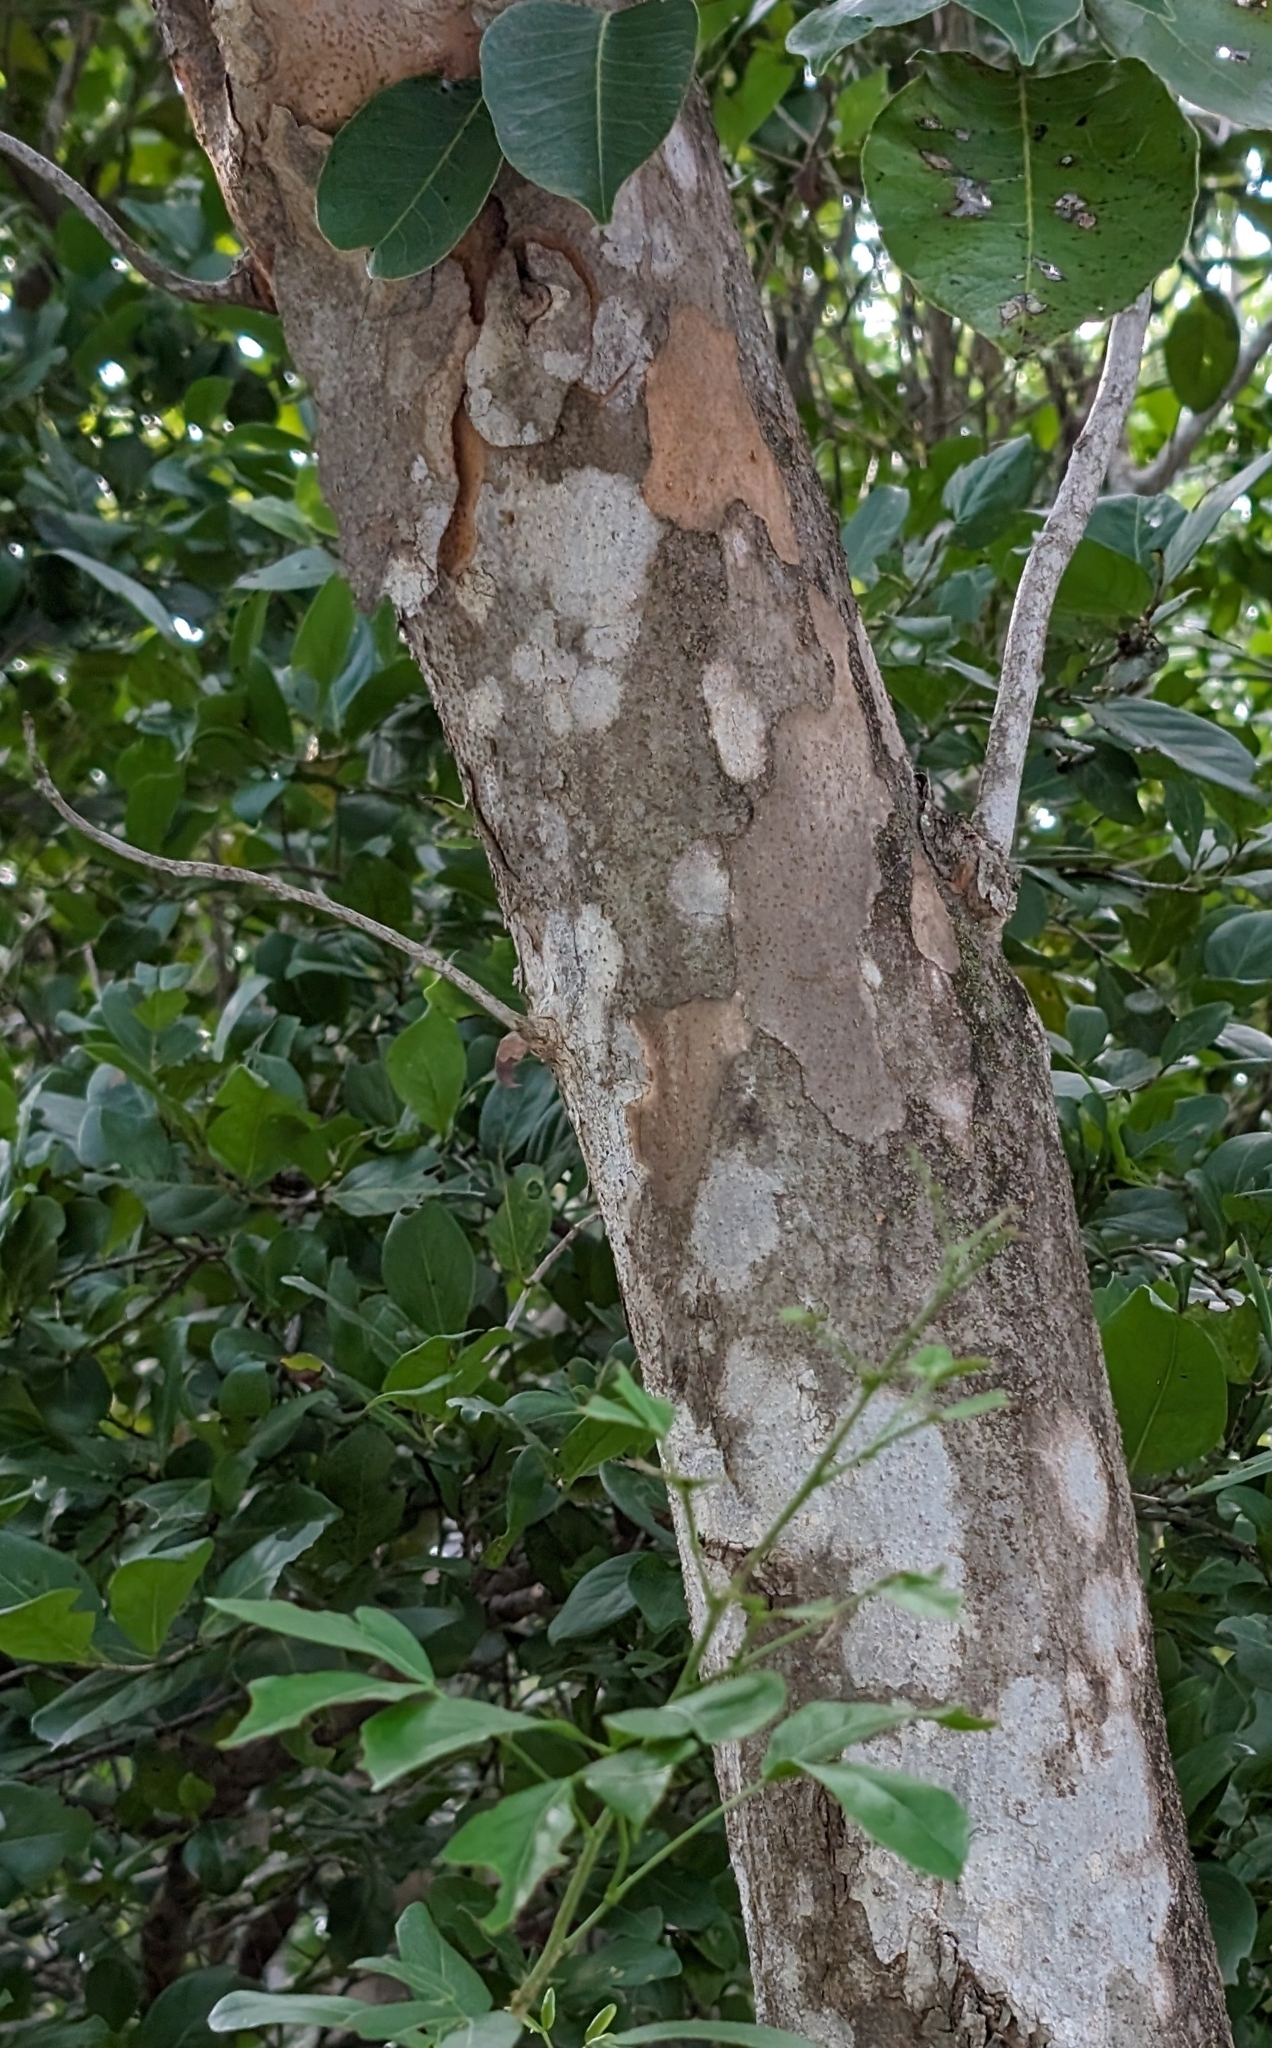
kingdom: Plantae
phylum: Tracheophyta
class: Magnoliopsida
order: Sapindales
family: Anacardiaceae
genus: Metopium
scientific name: Metopium toxiferum
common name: Florida poisontree
